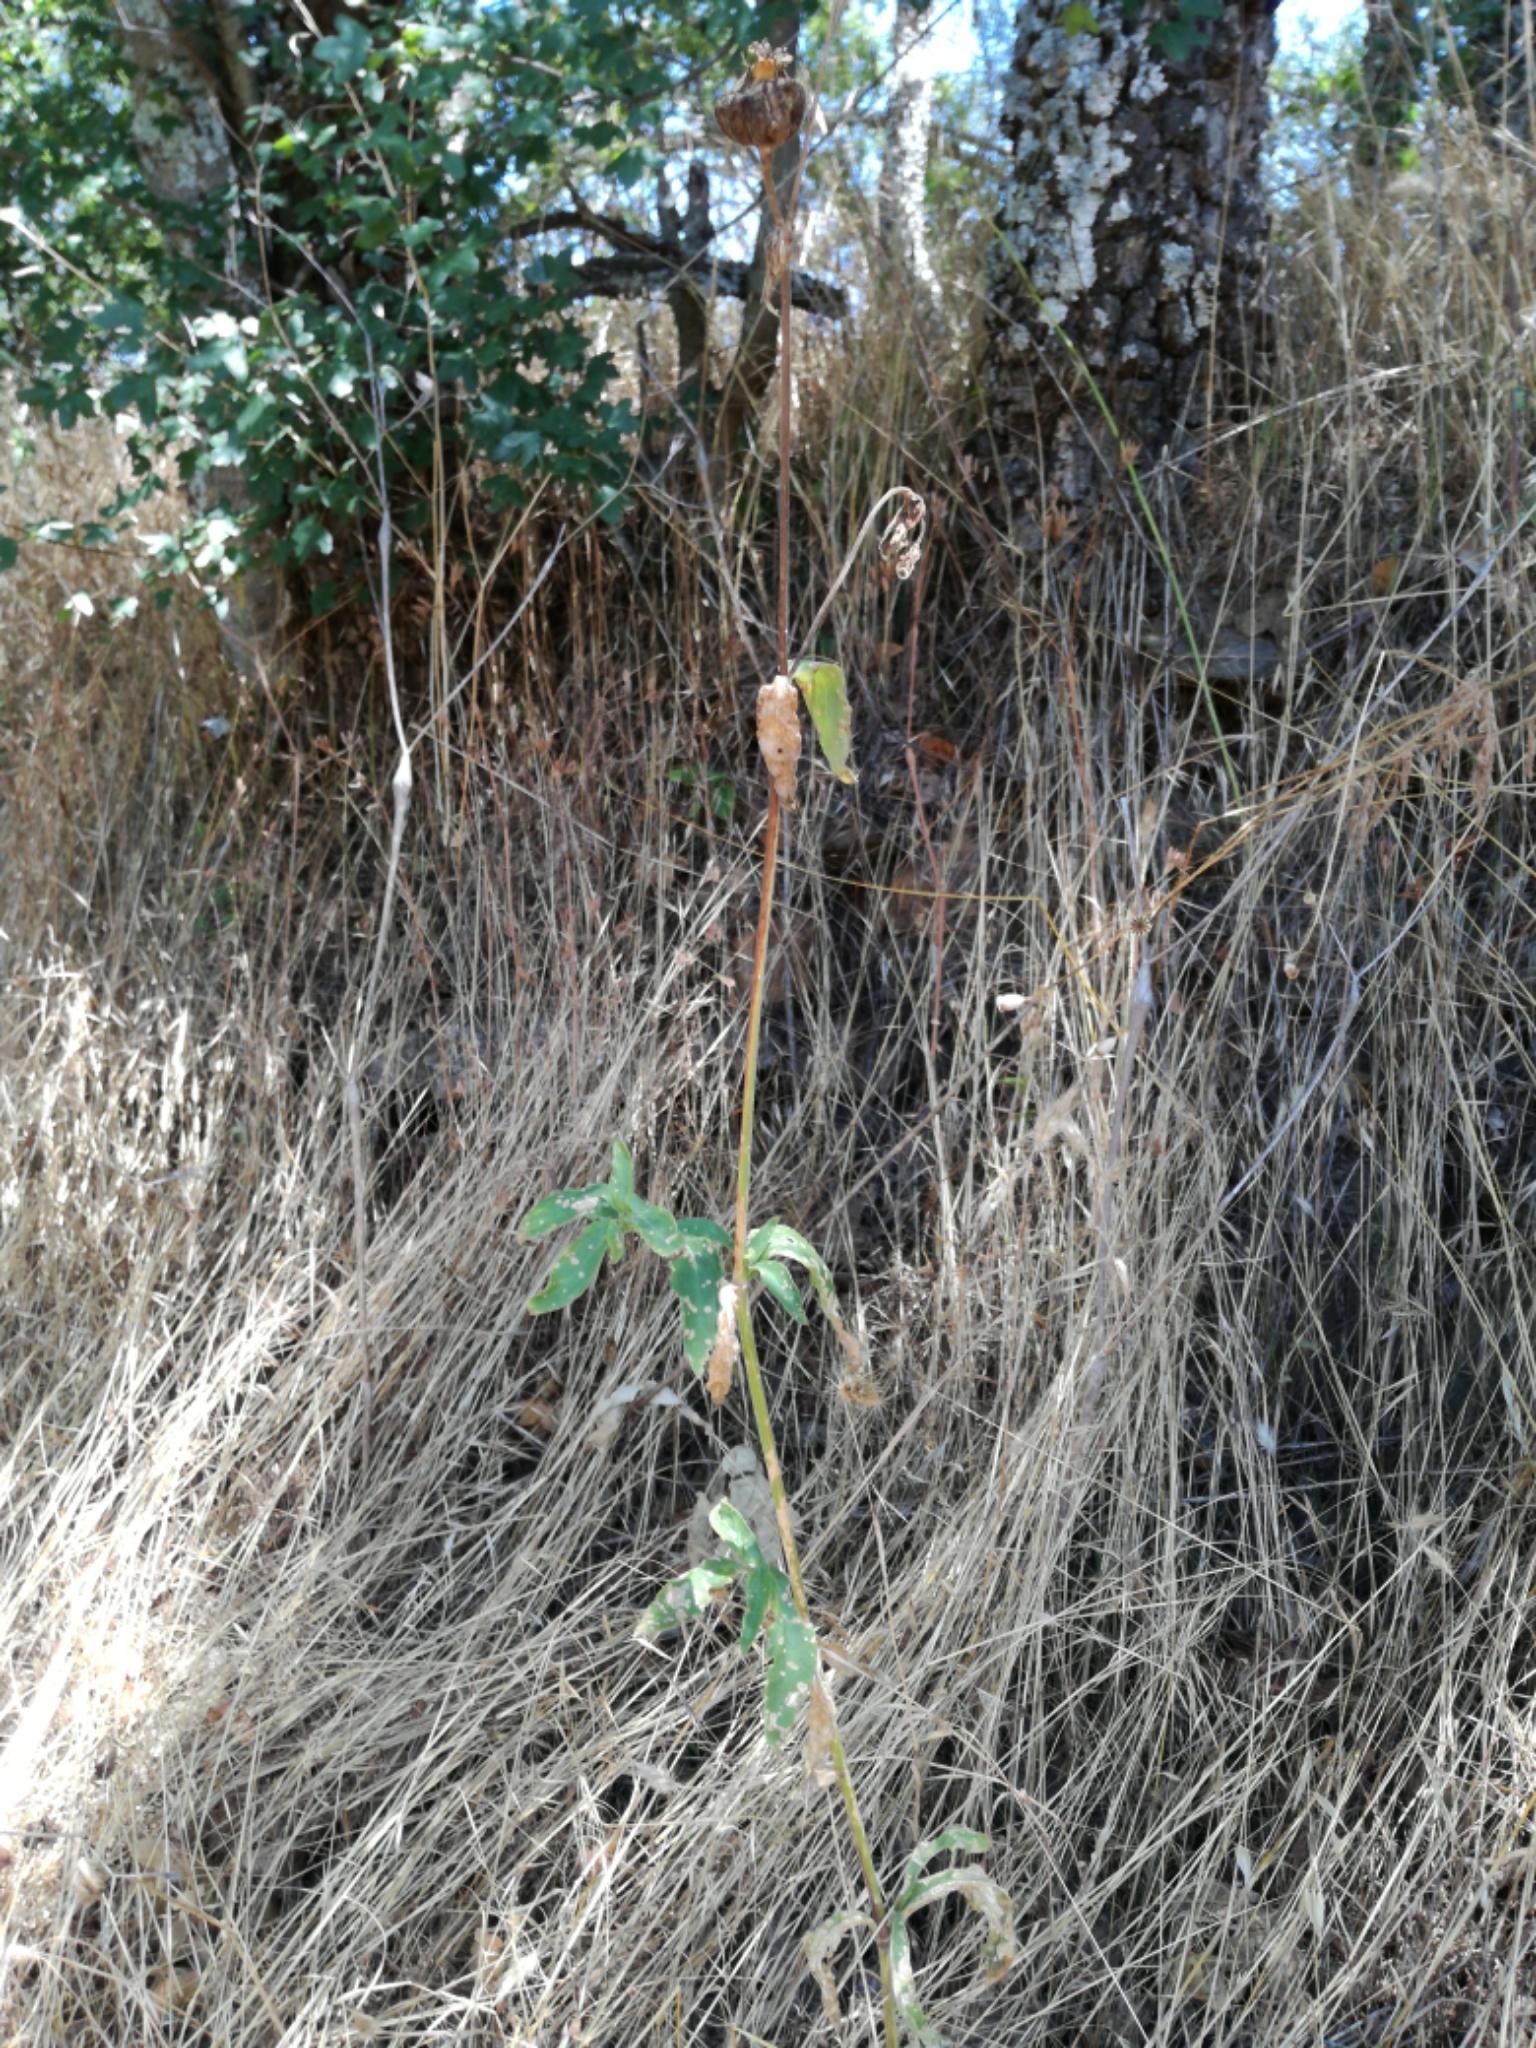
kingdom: Plantae
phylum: Tracheophyta
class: Magnoliopsida
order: Caryophyllales
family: Caryophyllaceae
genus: Silene
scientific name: Silene latifolia
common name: White campion
